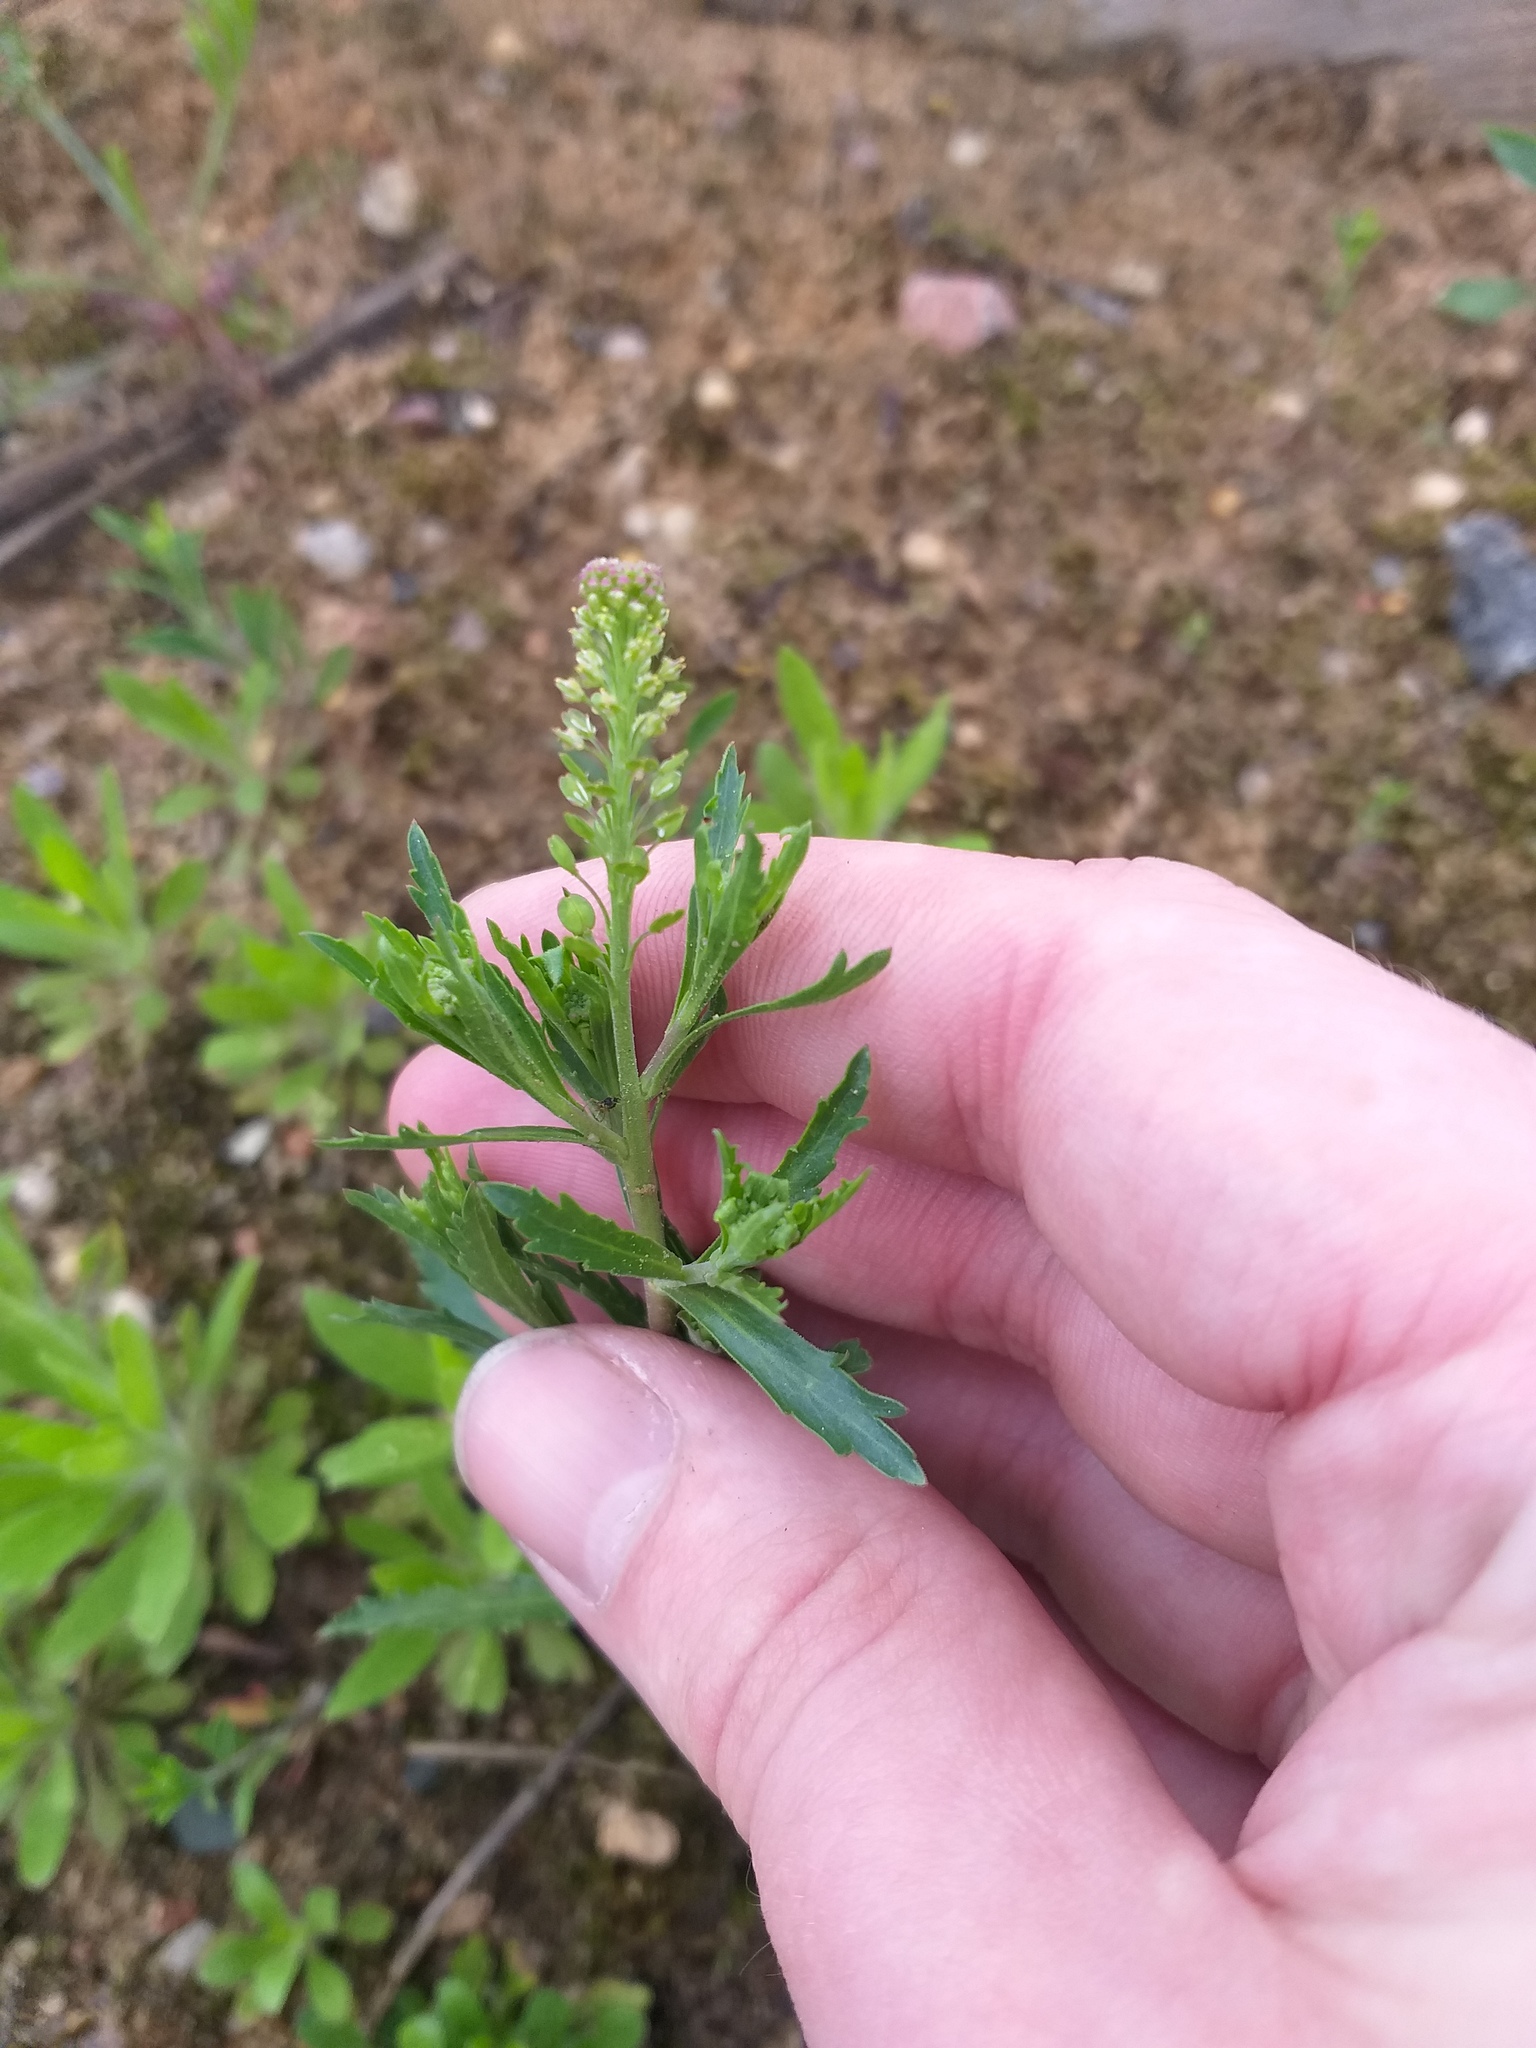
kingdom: Plantae
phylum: Tracheophyta
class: Magnoliopsida
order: Brassicales
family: Brassicaceae
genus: Lepidium
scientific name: Lepidium densiflorum
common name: Miner's pepperwort
